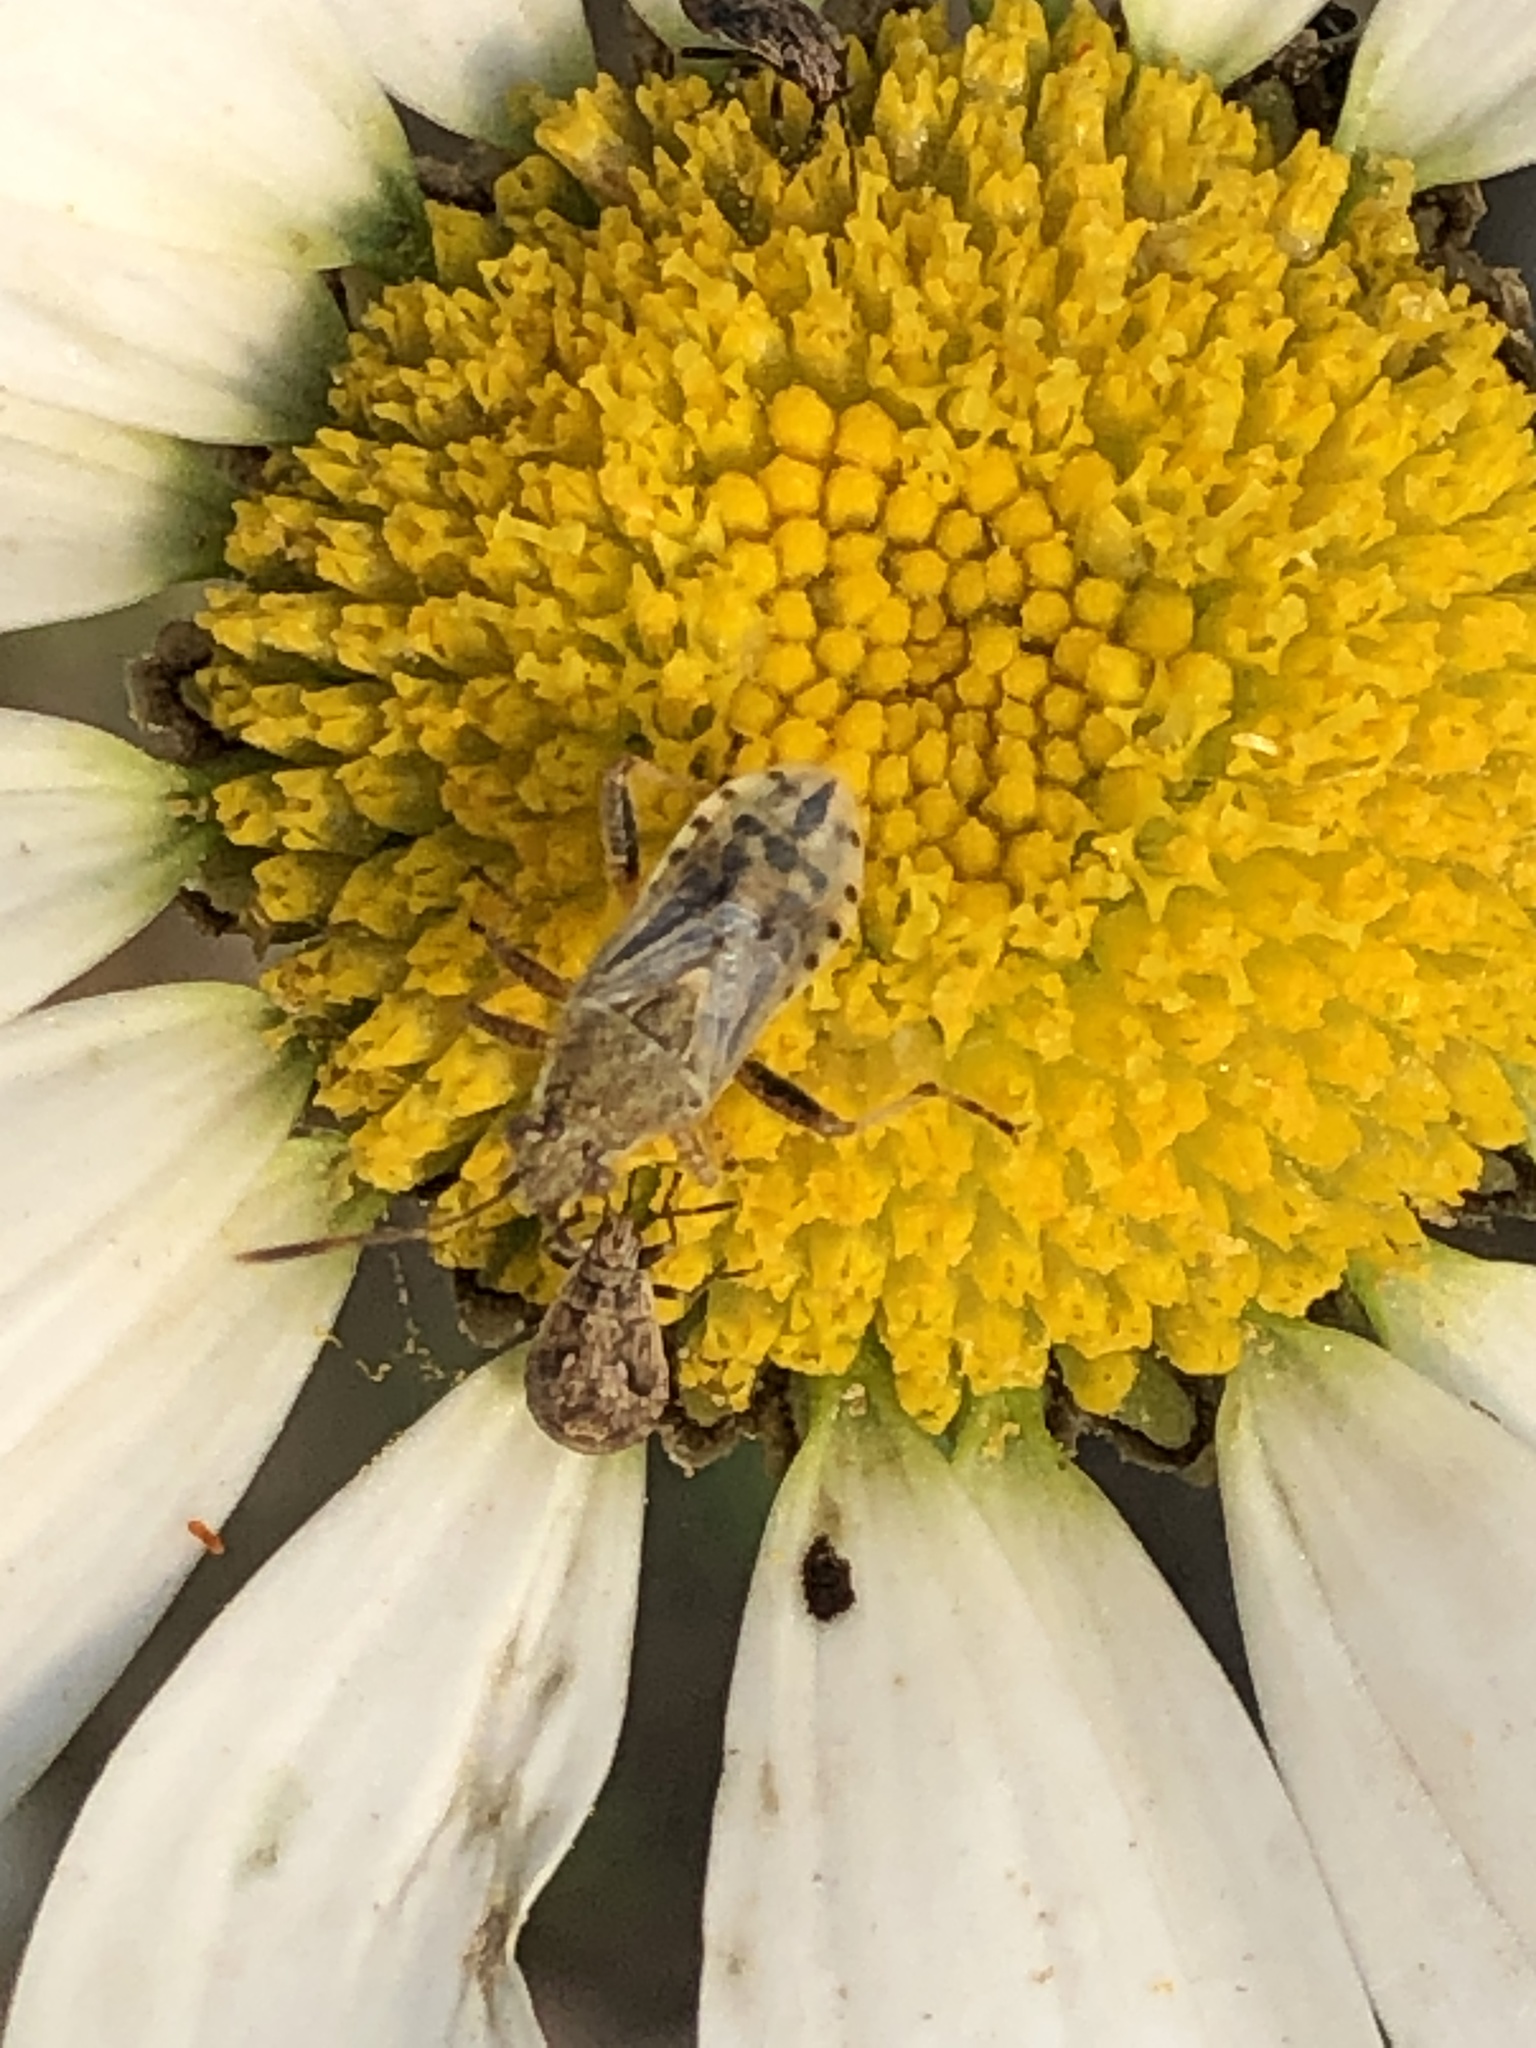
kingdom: Animalia
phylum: Arthropoda
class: Insecta
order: Hemiptera
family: Rhopalidae
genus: Stictopleurus
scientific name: Stictopleurus minutus
